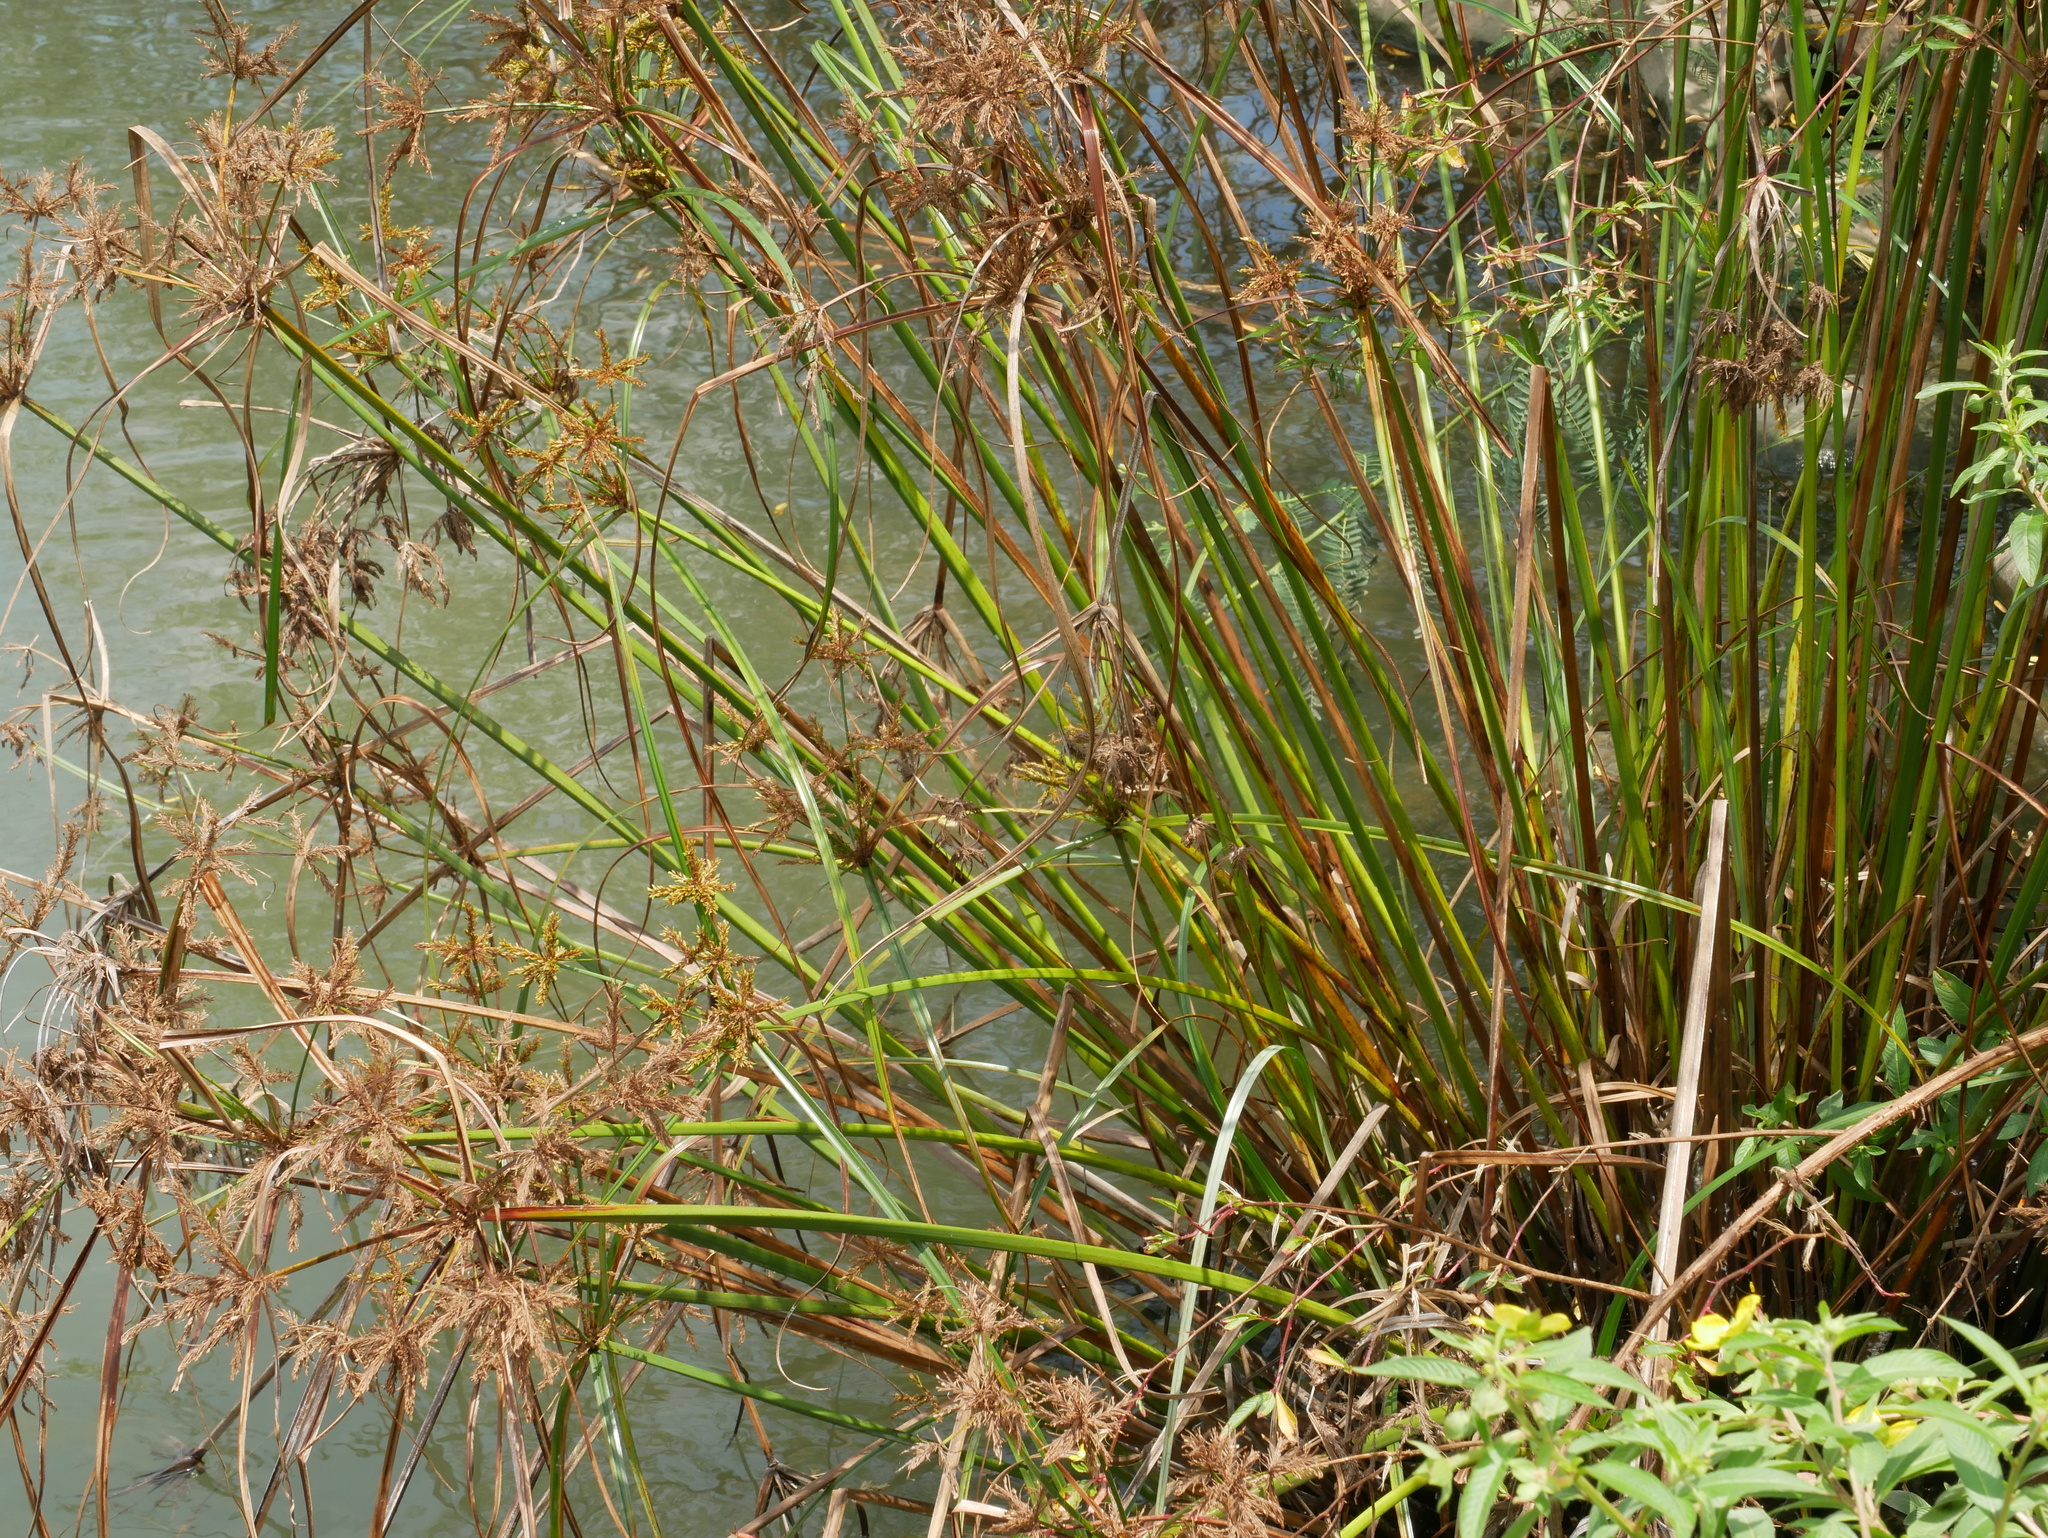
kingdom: Plantae
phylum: Tracheophyta
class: Liliopsida
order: Poales
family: Cyperaceae
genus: Cyperus
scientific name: Cyperus imbricatus
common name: Shingle flatsedge
